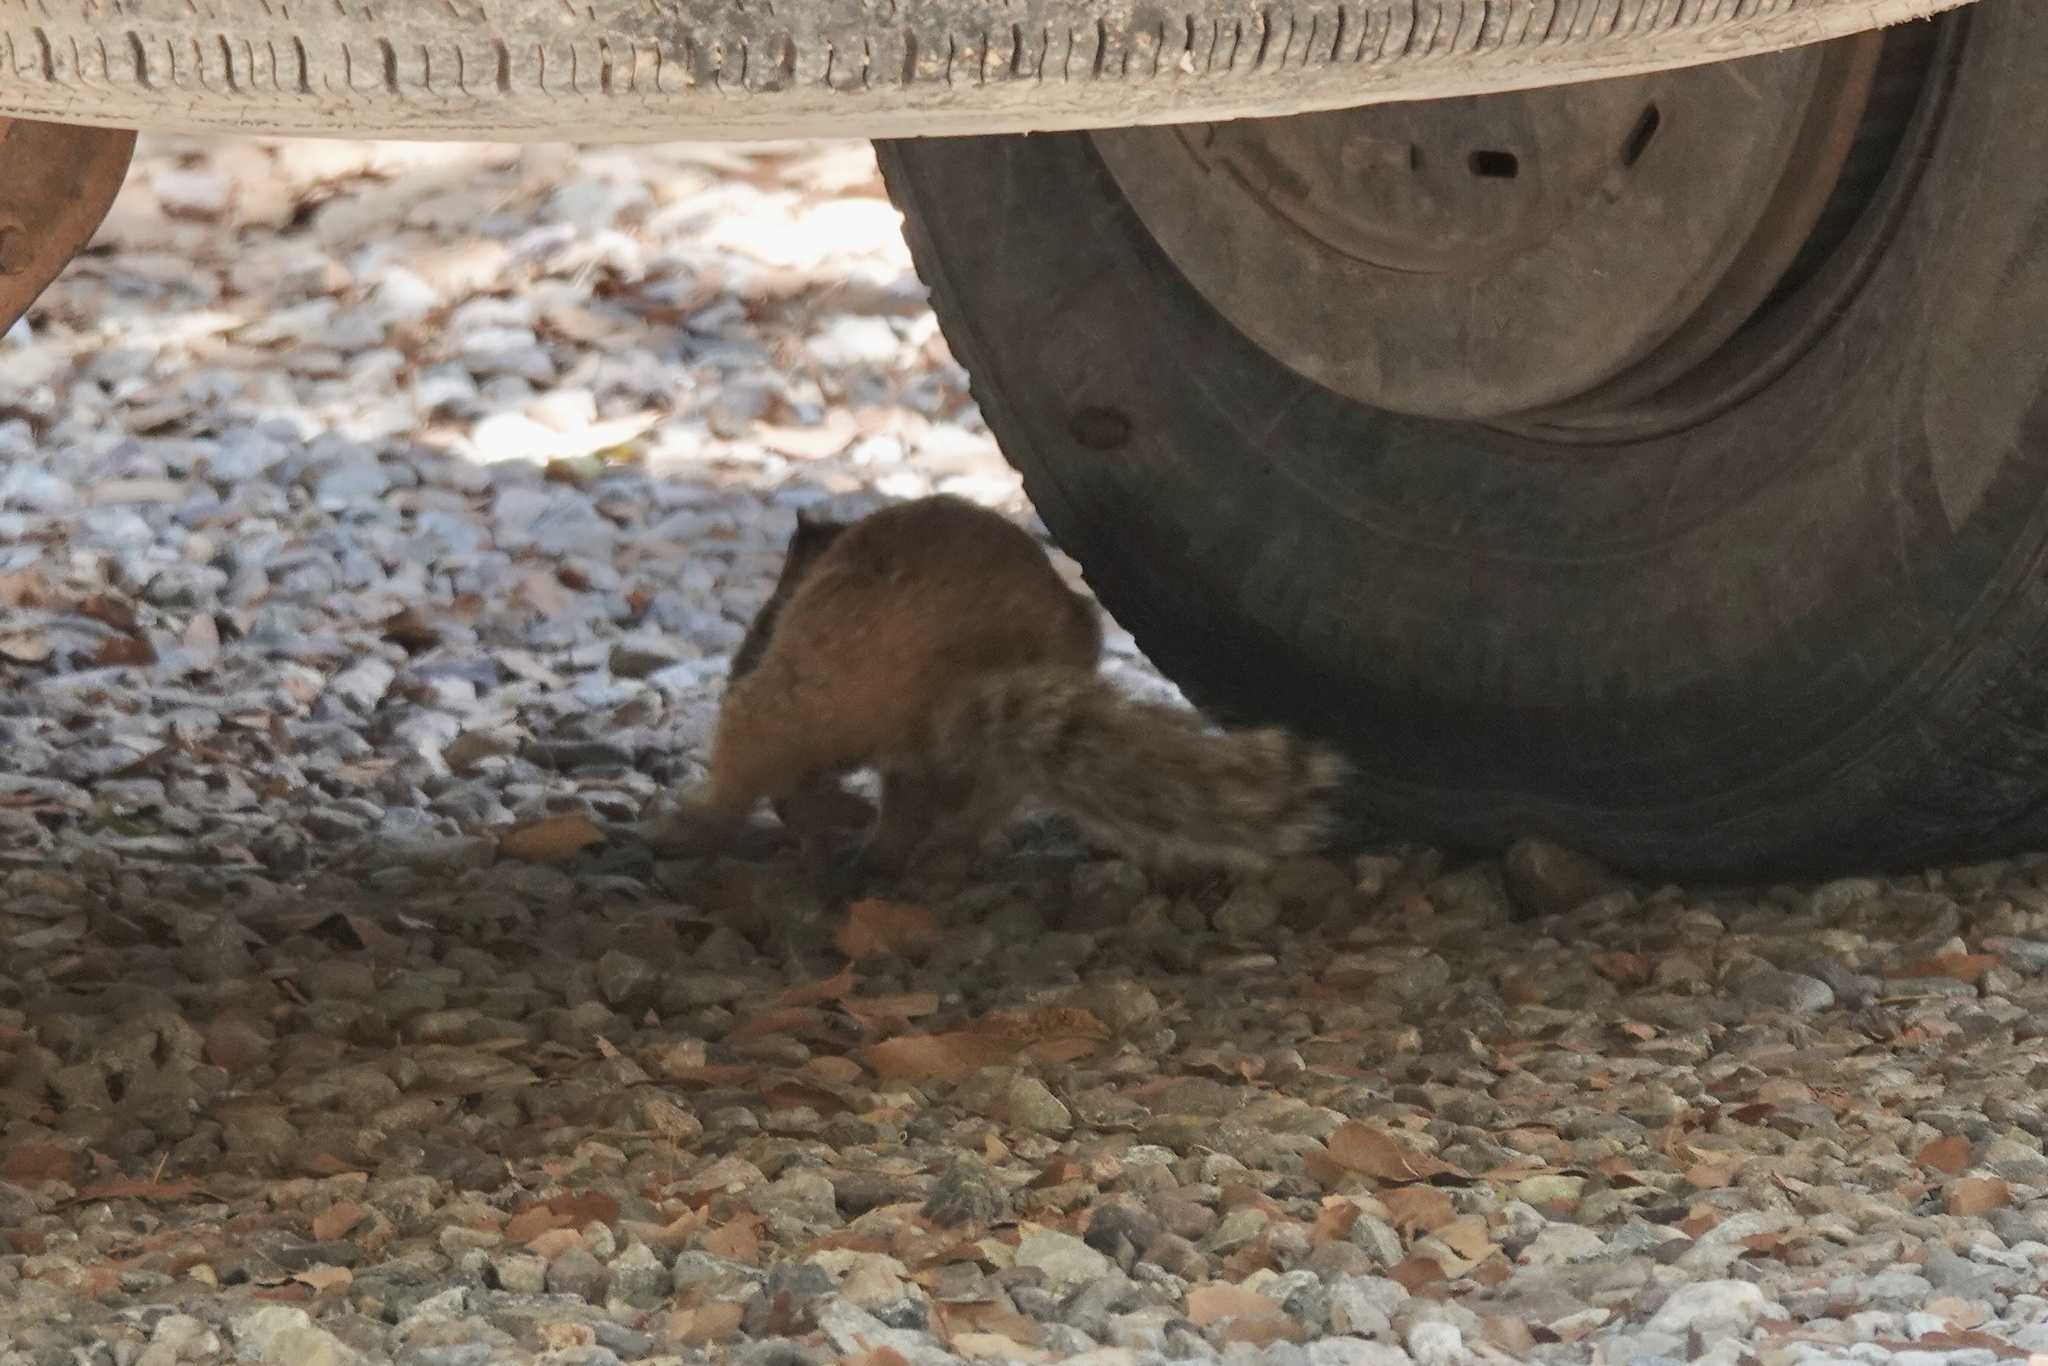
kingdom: Animalia
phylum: Chordata
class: Mammalia
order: Rodentia
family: Sciuridae
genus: Otospermophilus
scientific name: Otospermophilus variegatus
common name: Rock squirrel
